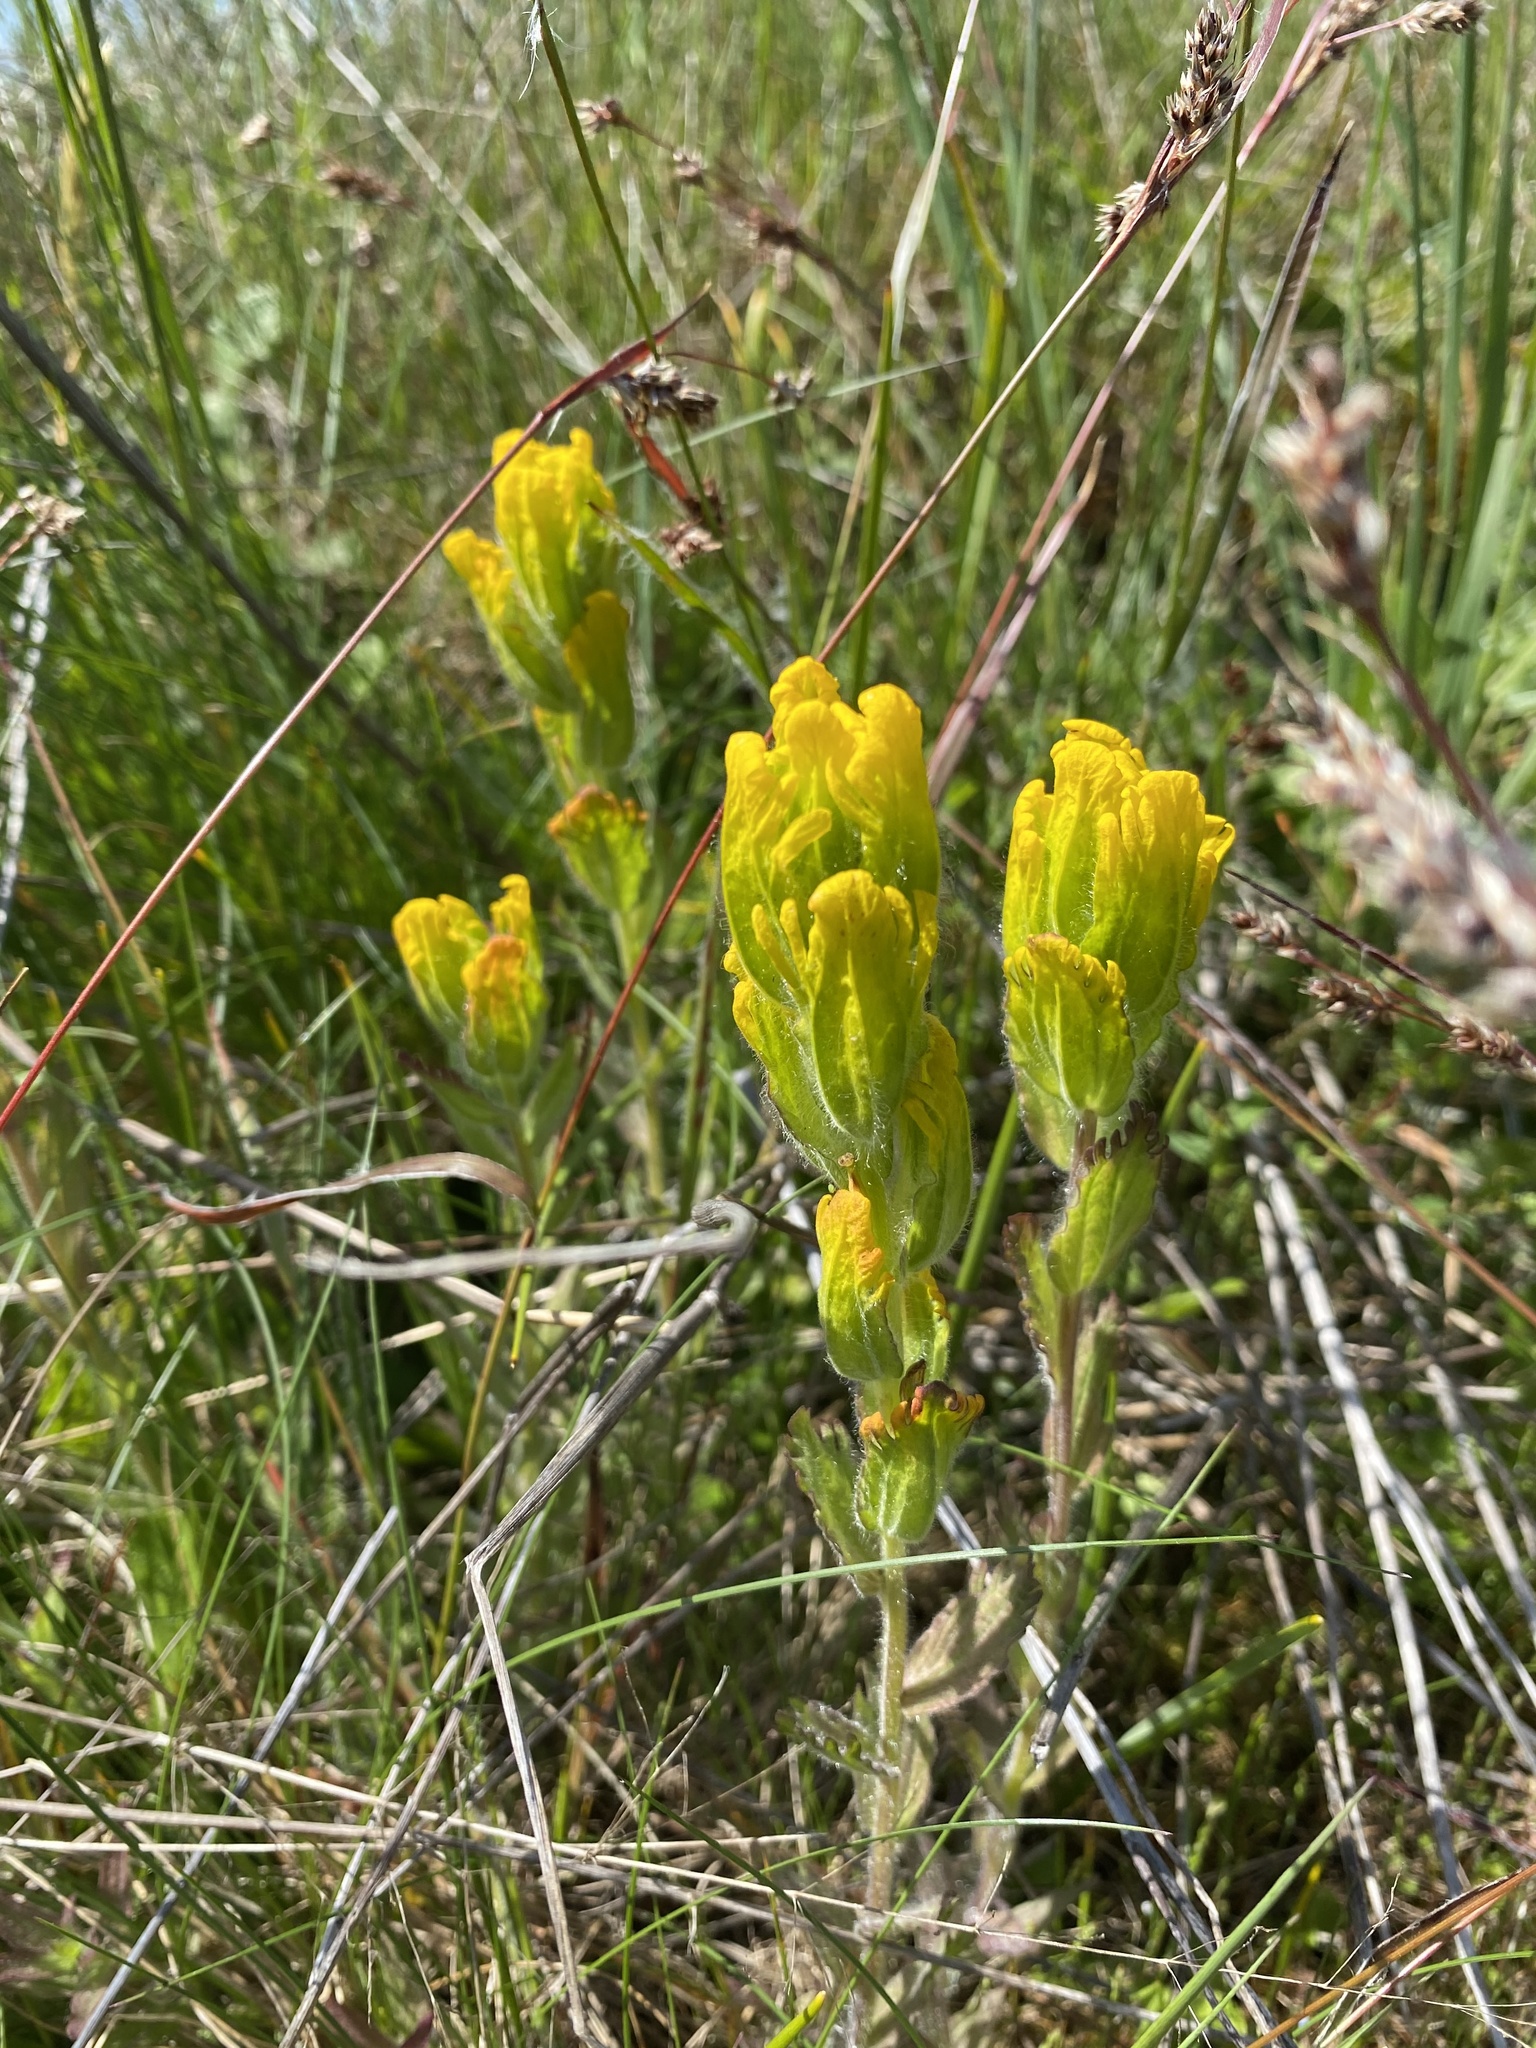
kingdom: Plantae
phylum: Tracheophyta
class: Magnoliopsida
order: Lamiales
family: Orobanchaceae
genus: Castilleja
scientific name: Castilleja levisecta
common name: Golden paintbrush
